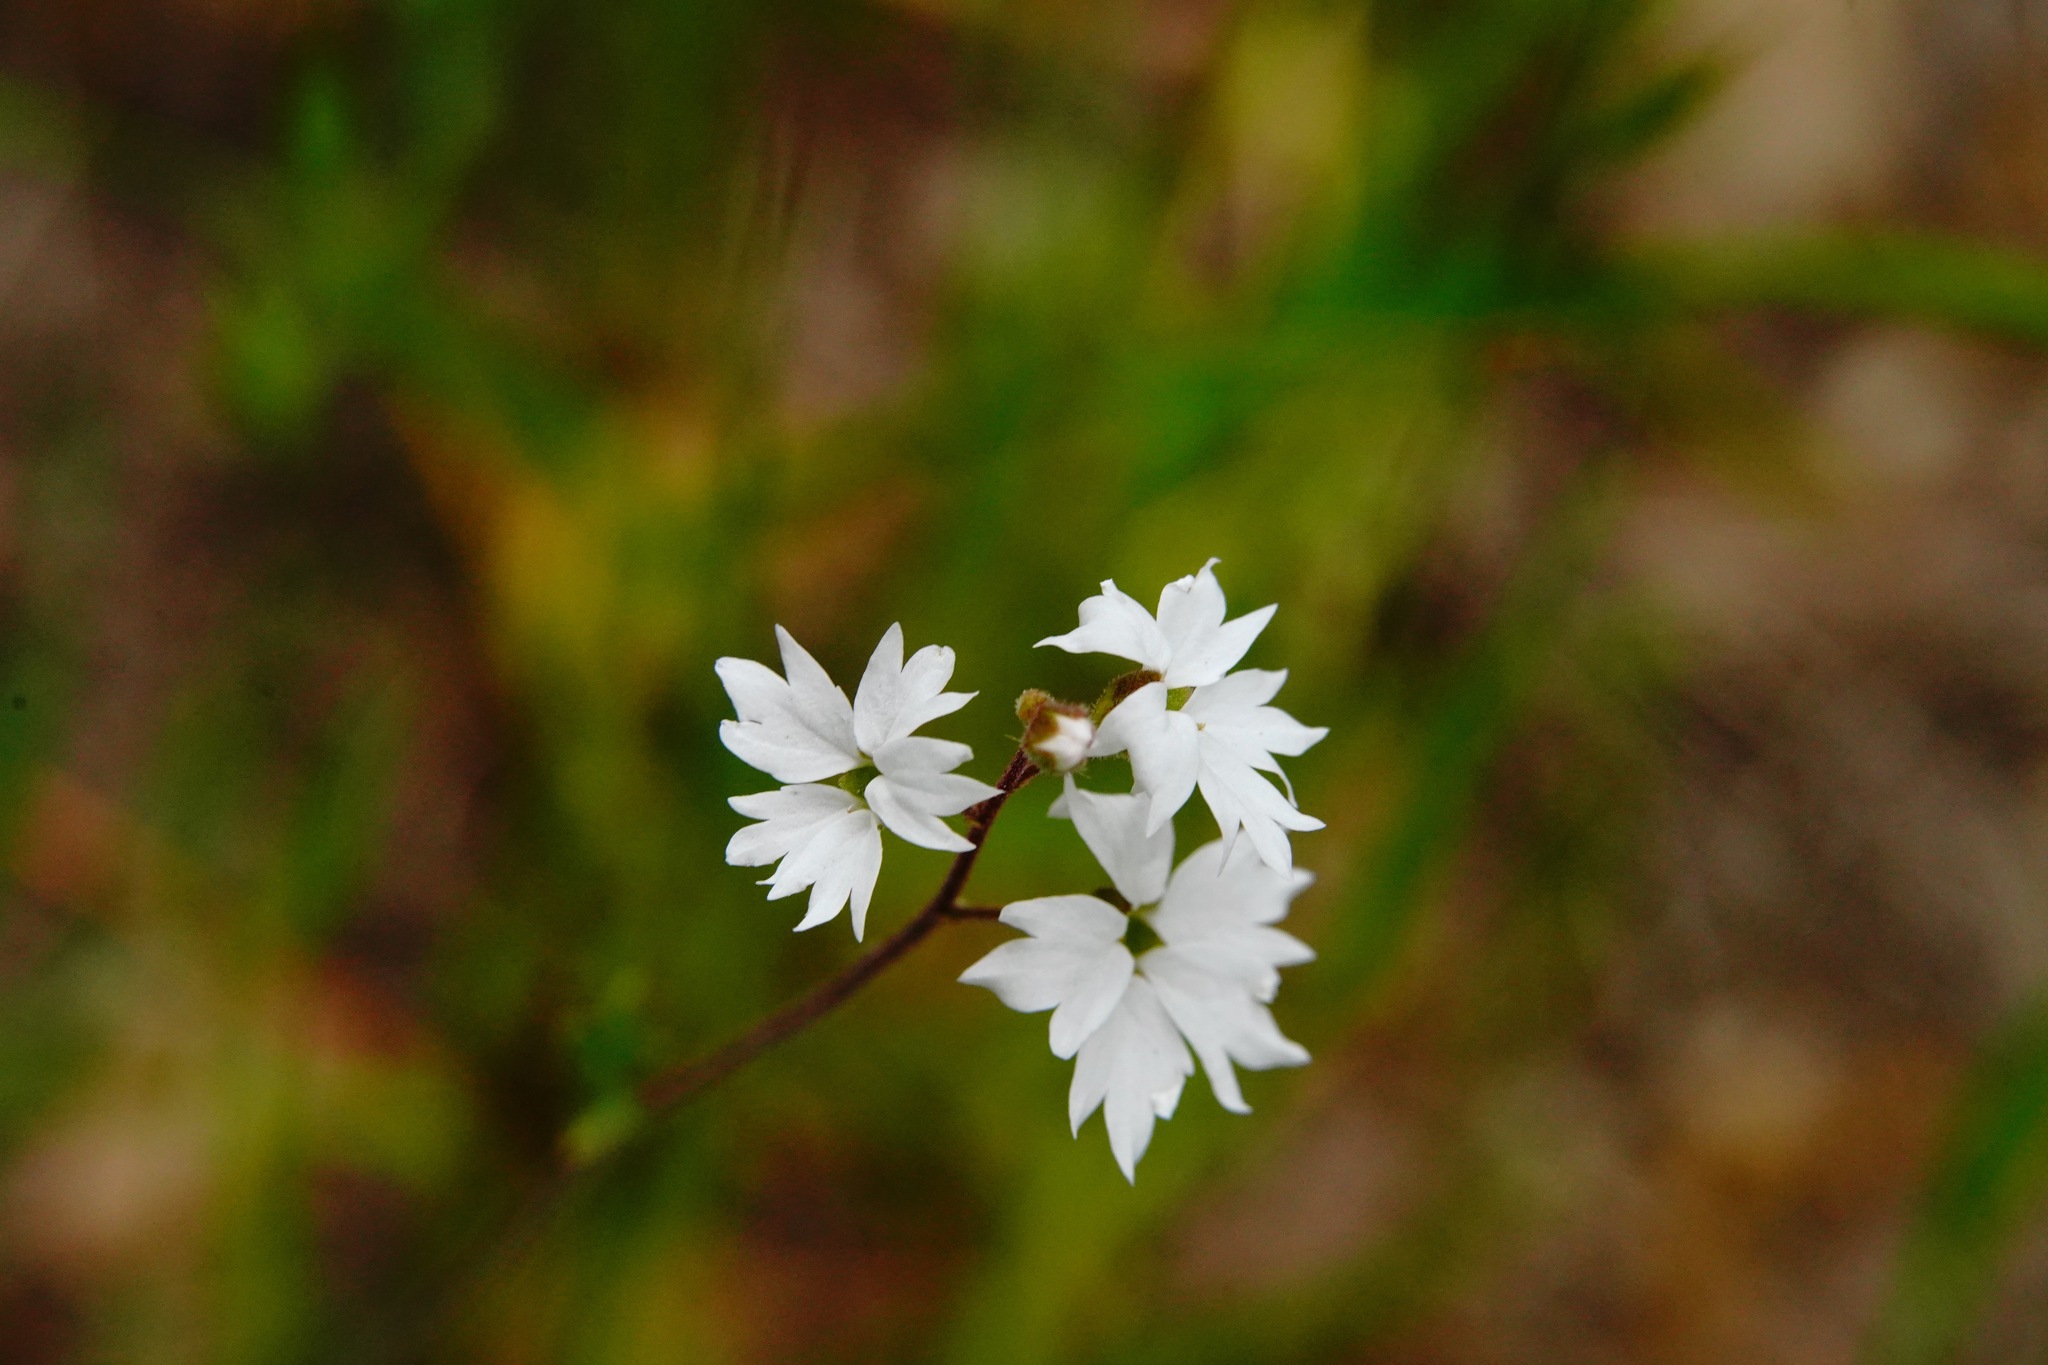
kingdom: Plantae
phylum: Tracheophyta
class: Magnoliopsida
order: Saxifragales
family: Saxifragaceae
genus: Lithophragma
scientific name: Lithophragma affine
